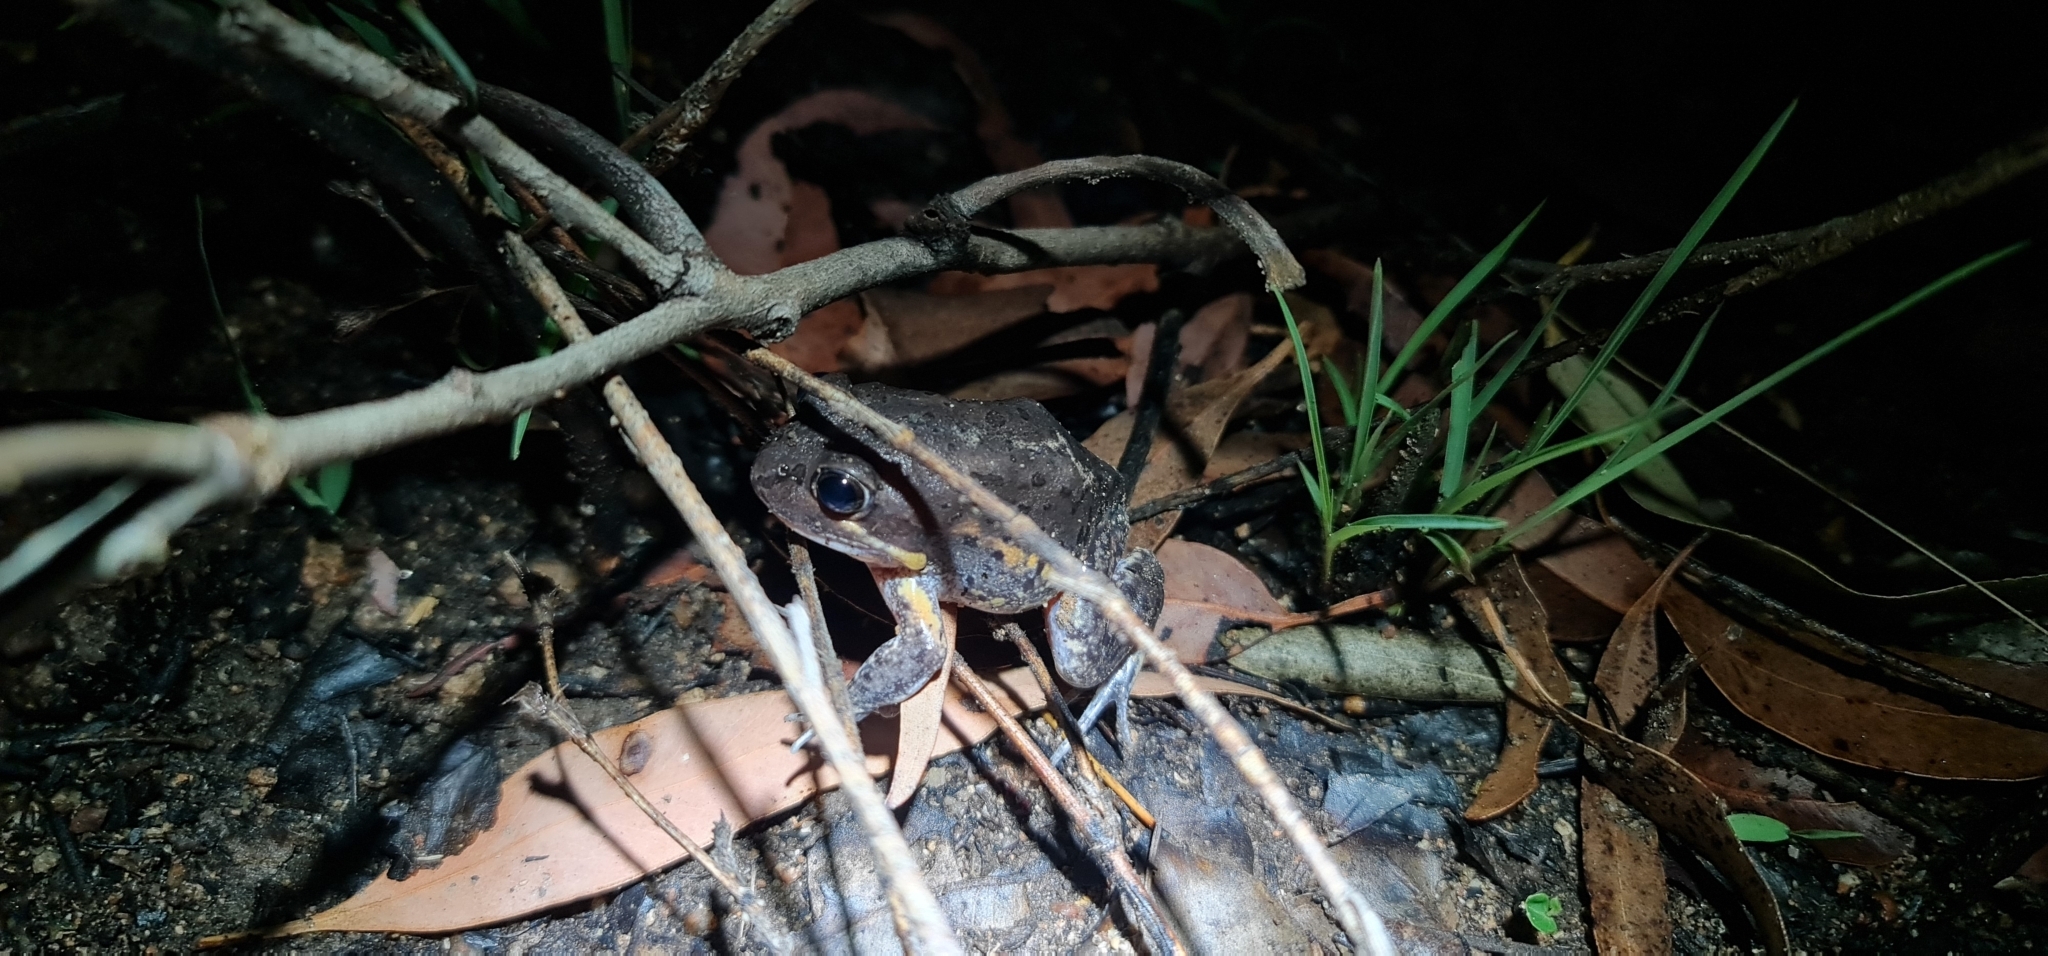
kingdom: Animalia
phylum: Chordata
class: Amphibia
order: Anura
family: Limnodynastidae
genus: Limnodynastes
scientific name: Limnodynastes terraereginae
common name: Northern banjo frog
